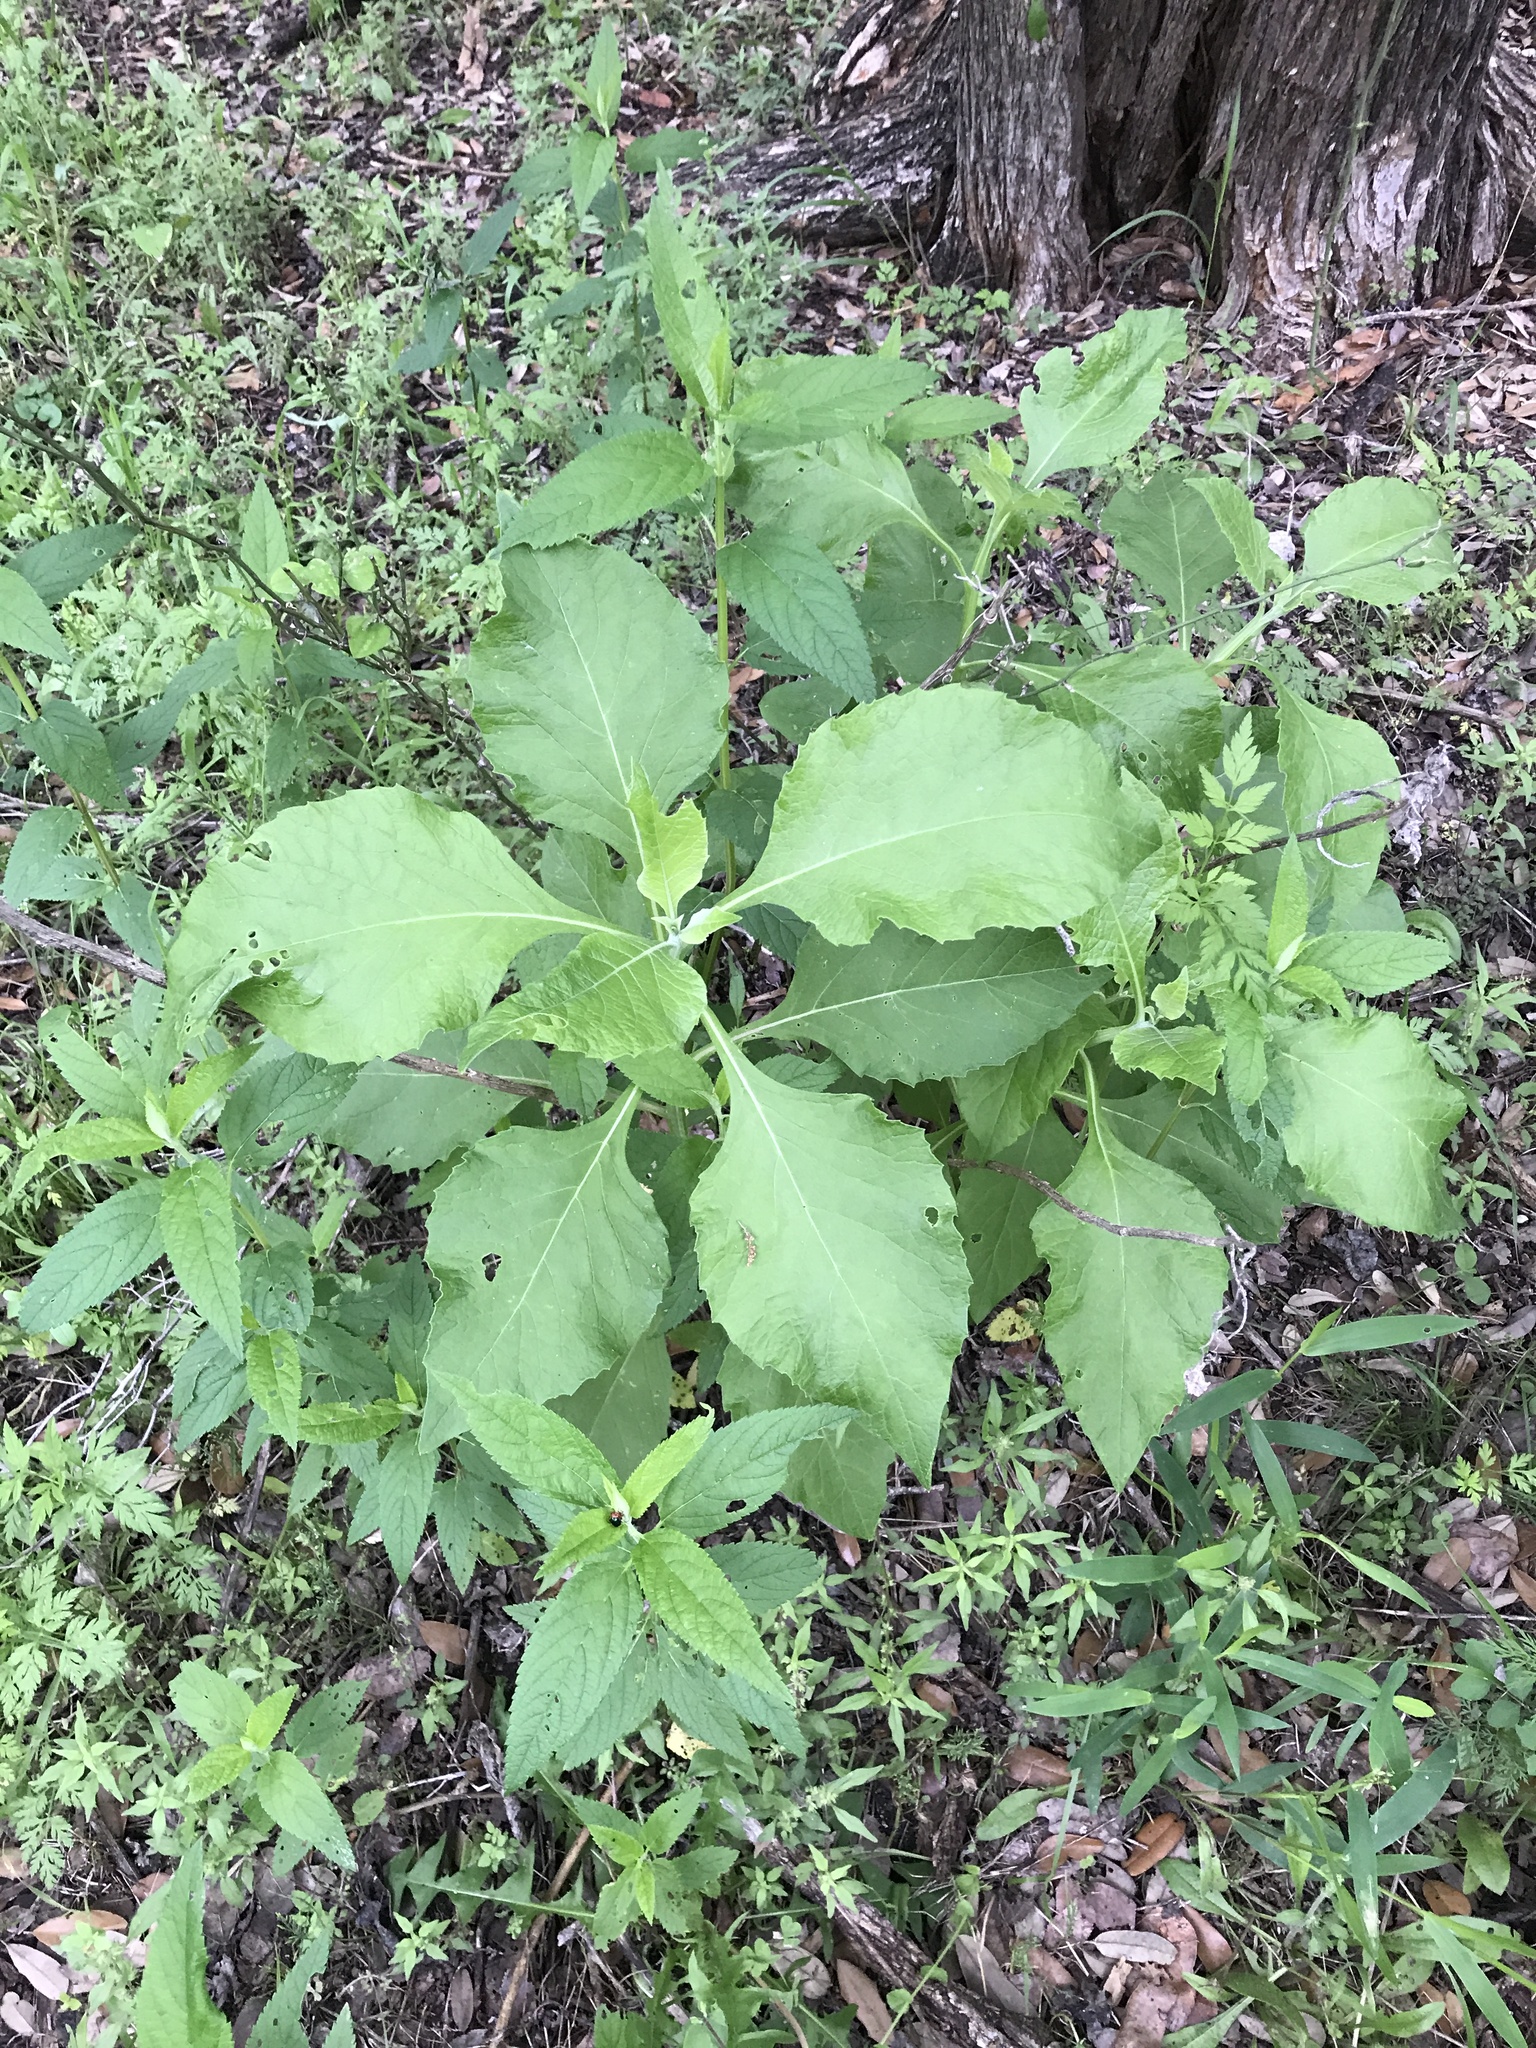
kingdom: Plantae
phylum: Tracheophyta
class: Magnoliopsida
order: Asterales
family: Asteraceae
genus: Verbesina
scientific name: Verbesina virginica
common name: Frostweed
